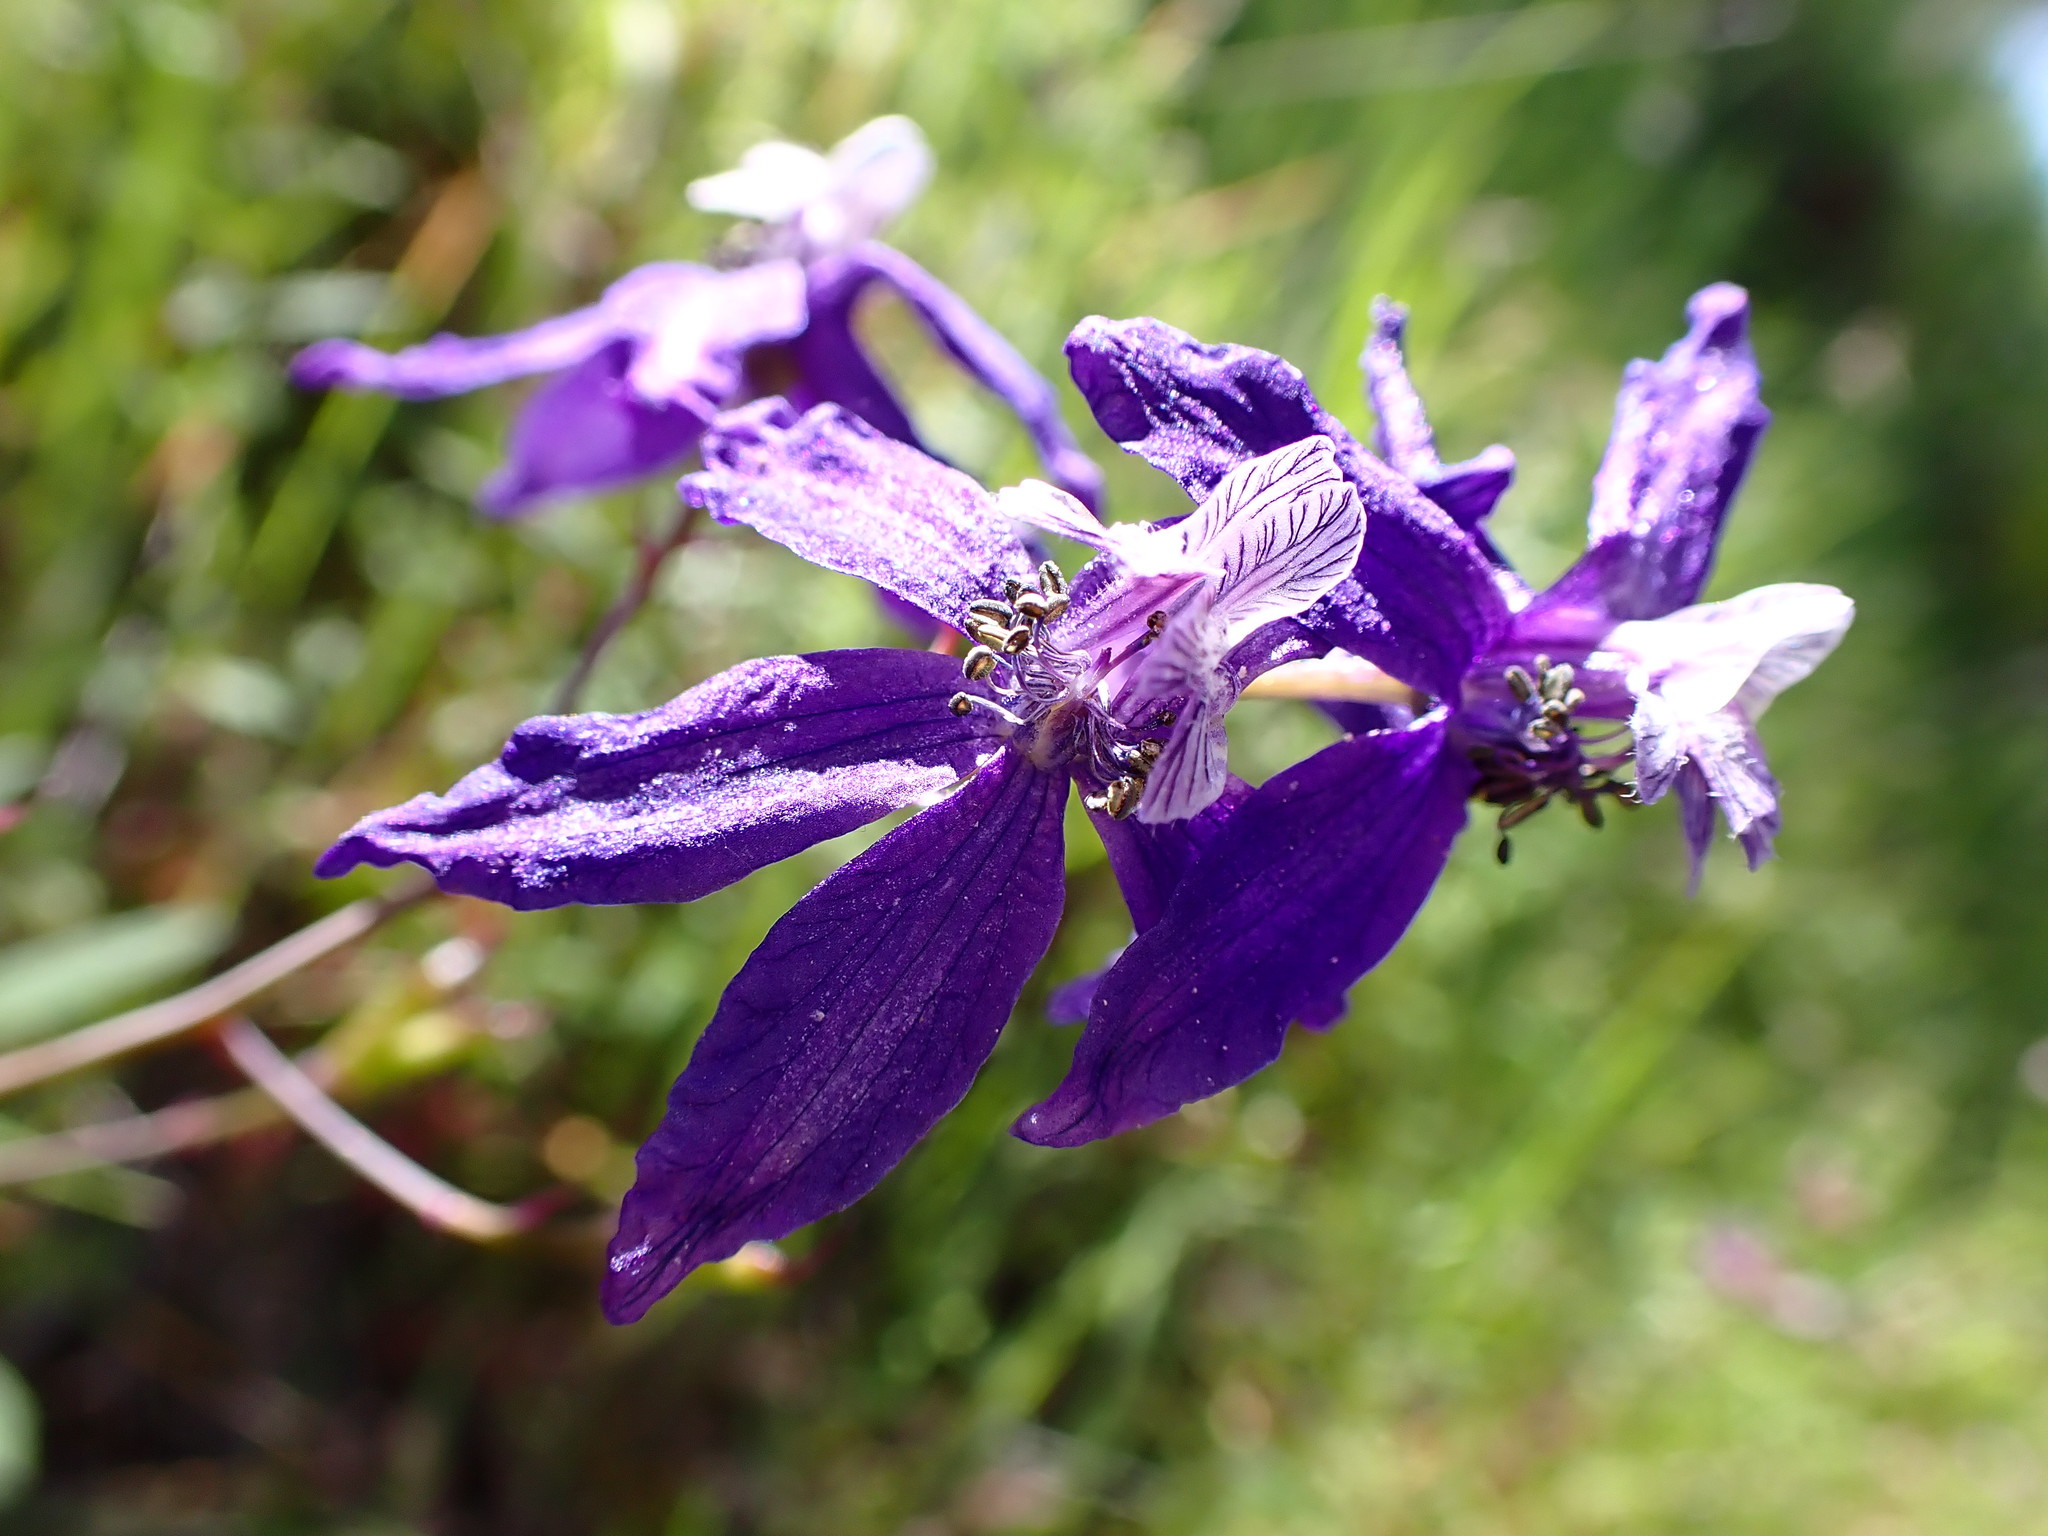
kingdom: Plantae
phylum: Tracheophyta
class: Magnoliopsida
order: Ranunculales
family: Ranunculaceae
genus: Delphinium
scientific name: Delphinium patens
